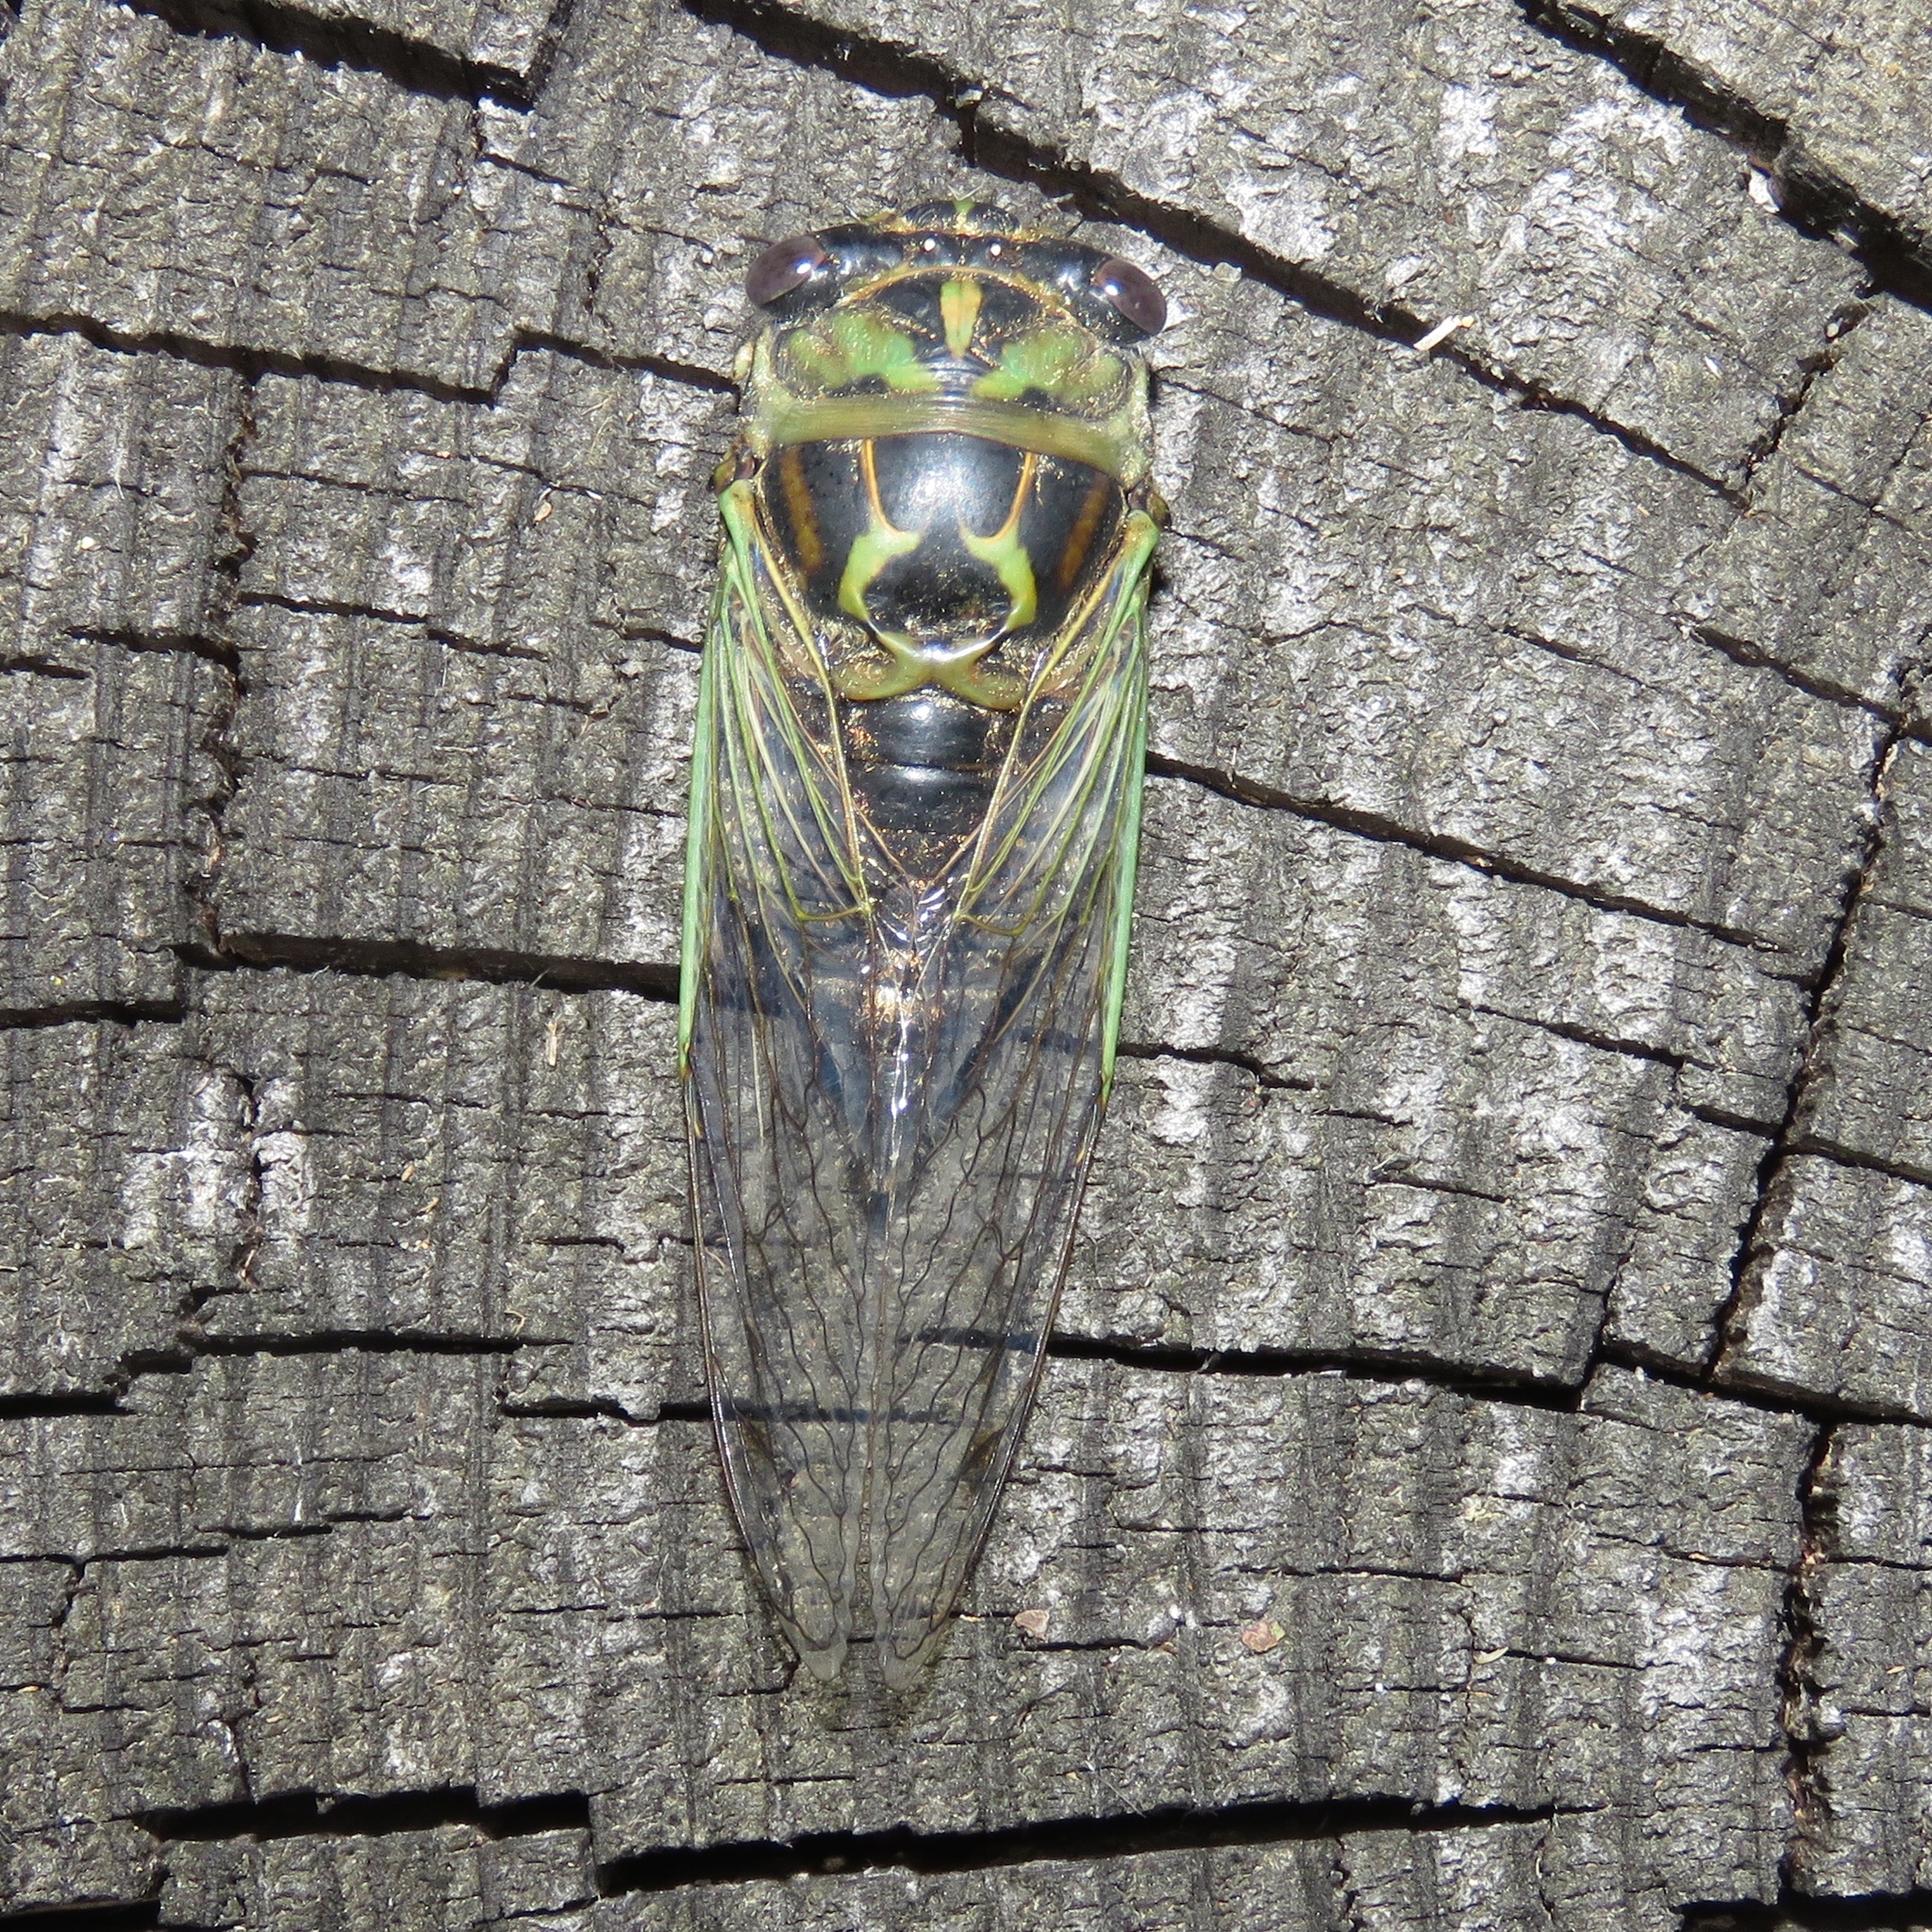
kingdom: Animalia
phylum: Arthropoda
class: Insecta
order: Hemiptera
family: Cicadidae
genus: Neotibicen
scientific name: Neotibicen canicularis
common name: God-day cicada
